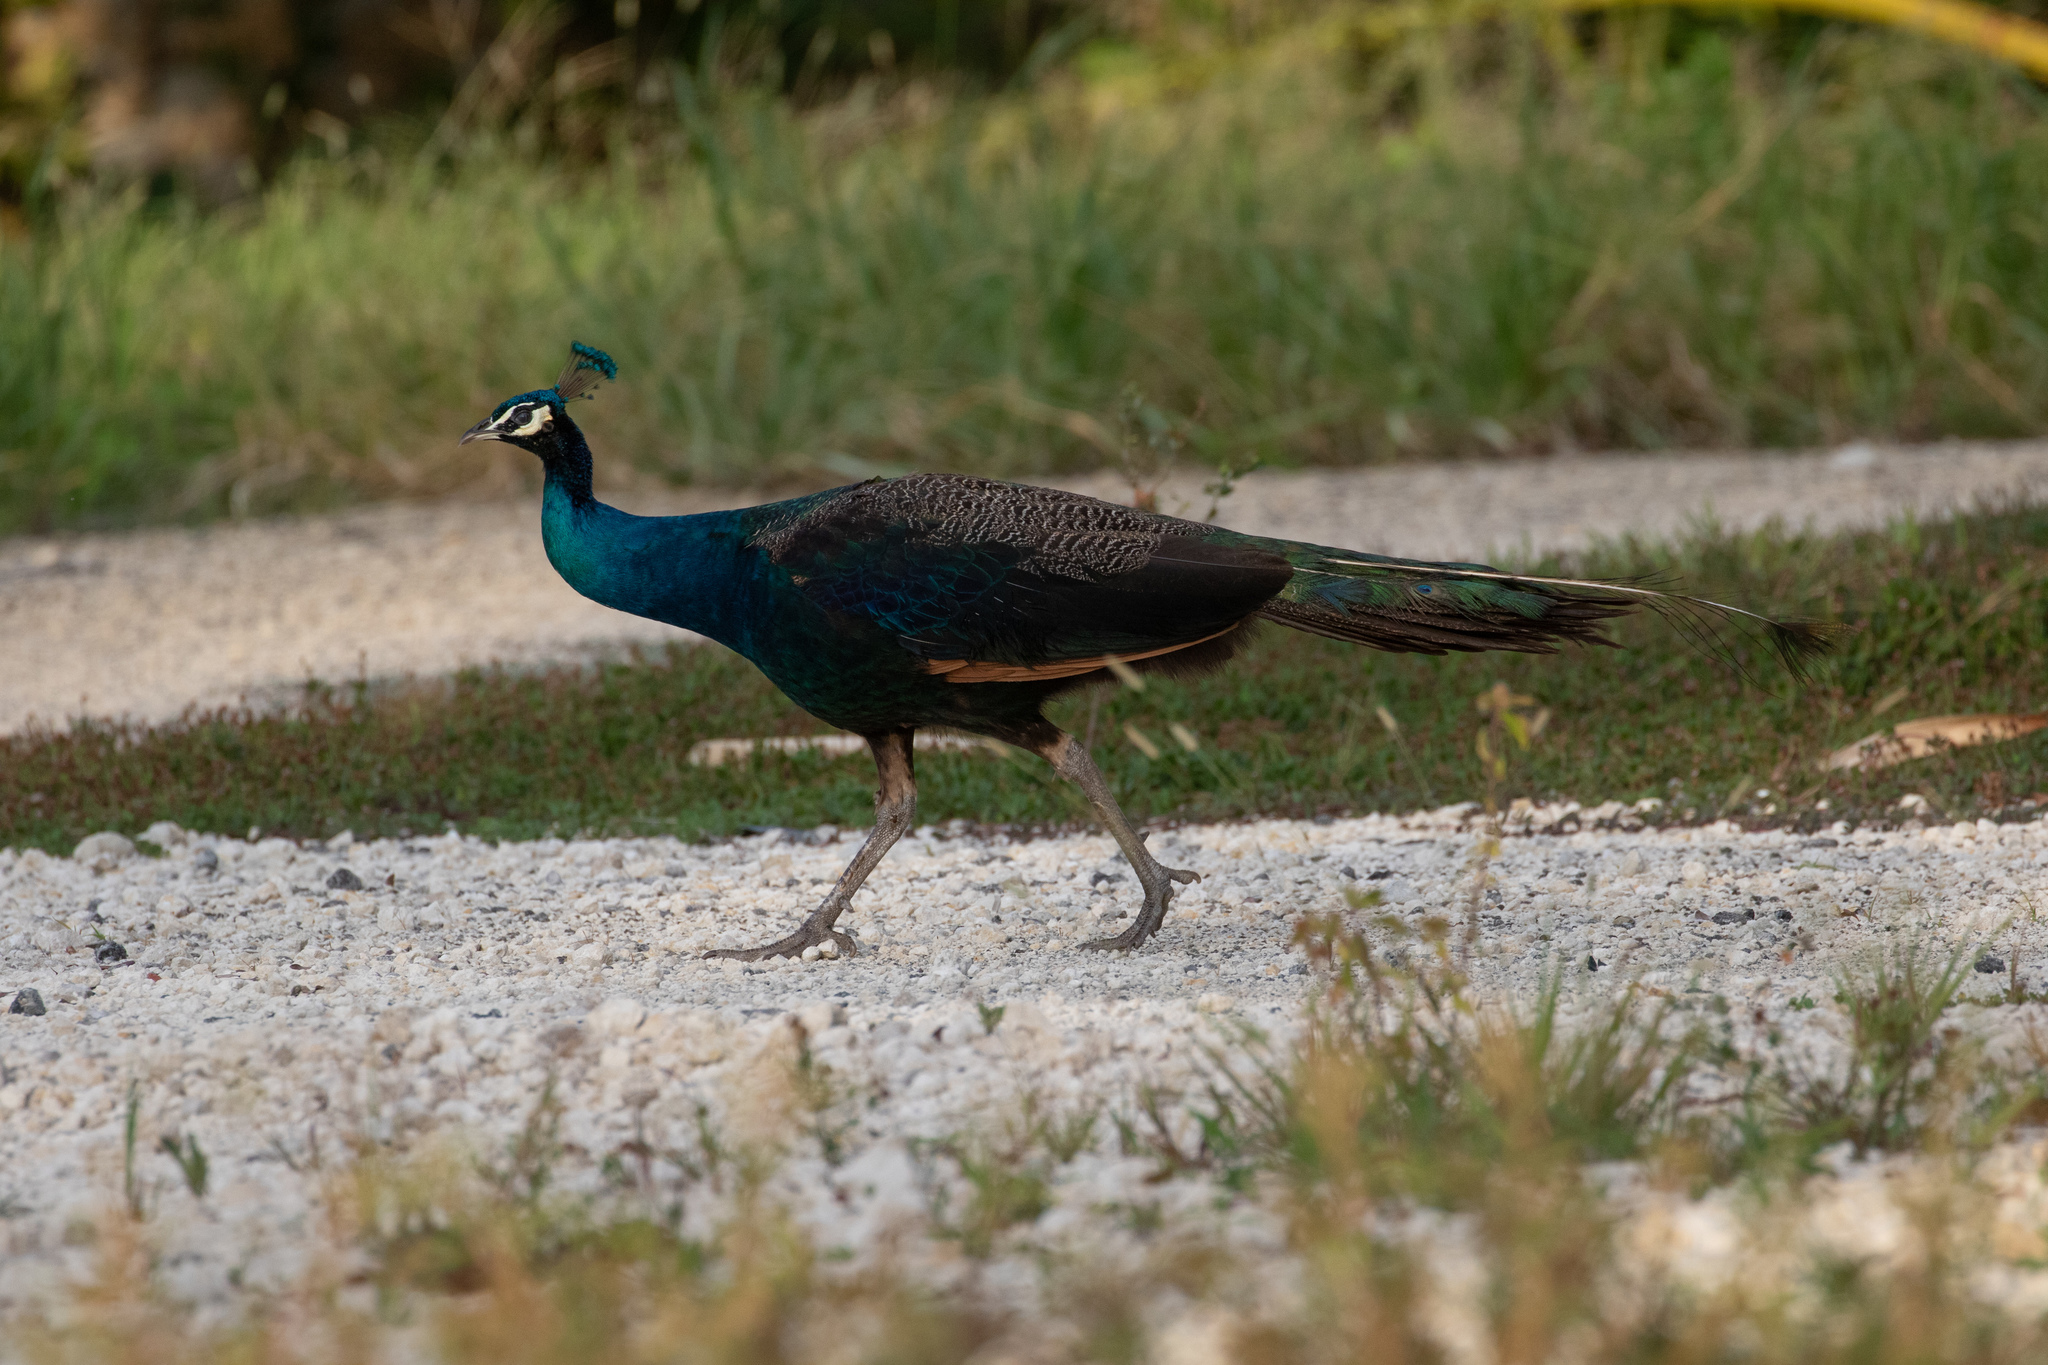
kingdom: Animalia
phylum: Chordata
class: Aves
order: Galliformes
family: Phasianidae
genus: Pavo
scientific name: Pavo cristatus
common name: Indian peafowl
